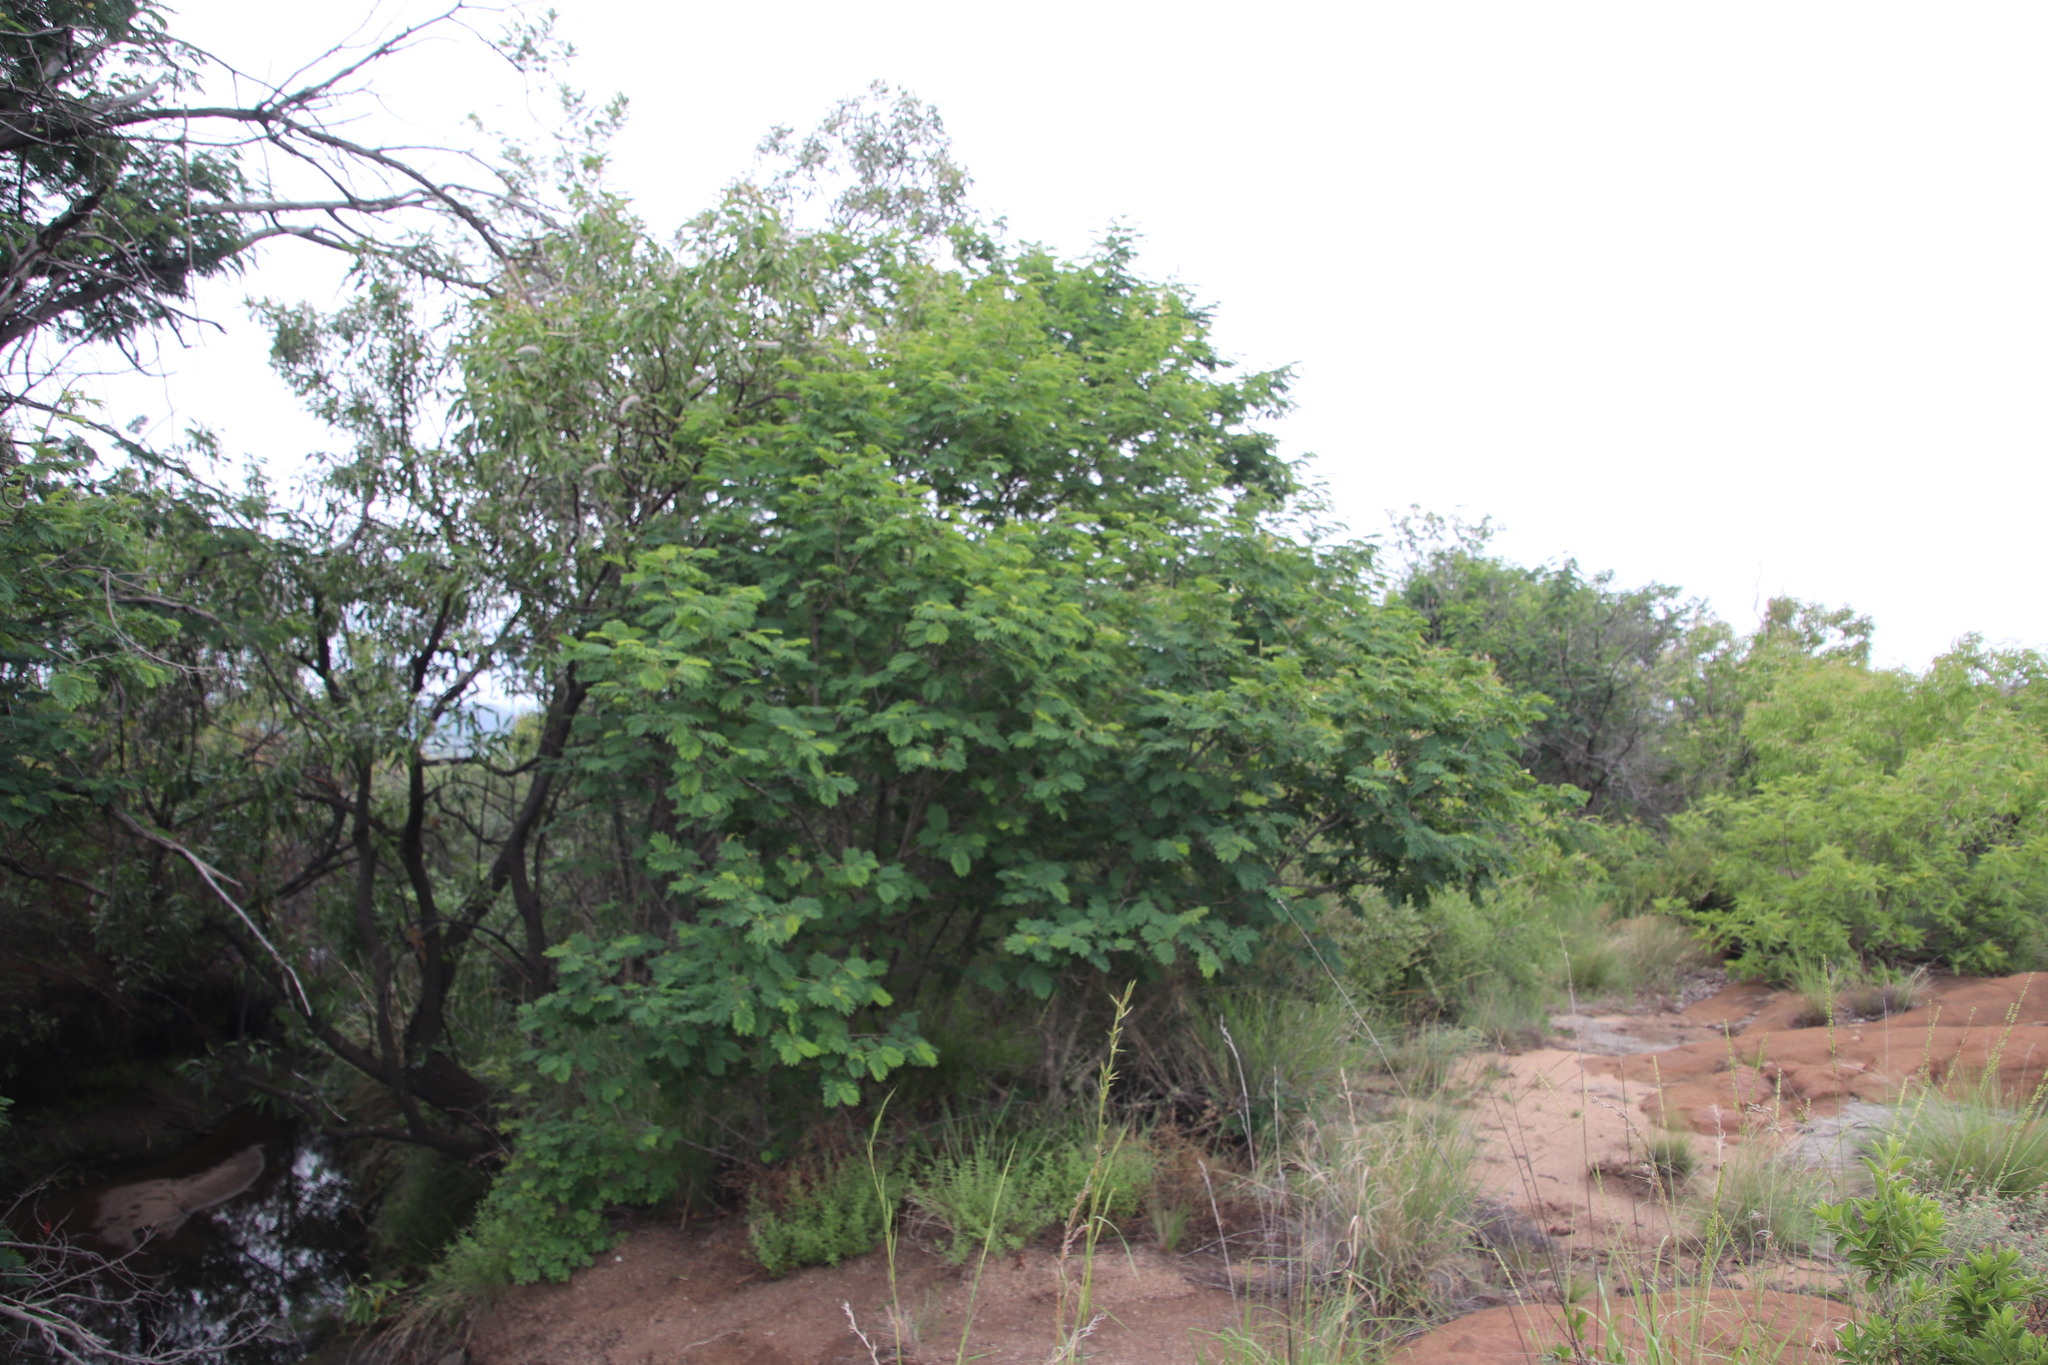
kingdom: Plantae
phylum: Tracheophyta
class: Magnoliopsida
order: Fabales
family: Fabaceae
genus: Senegalia
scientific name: Senegalia ataxacantha
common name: Flame acacia
